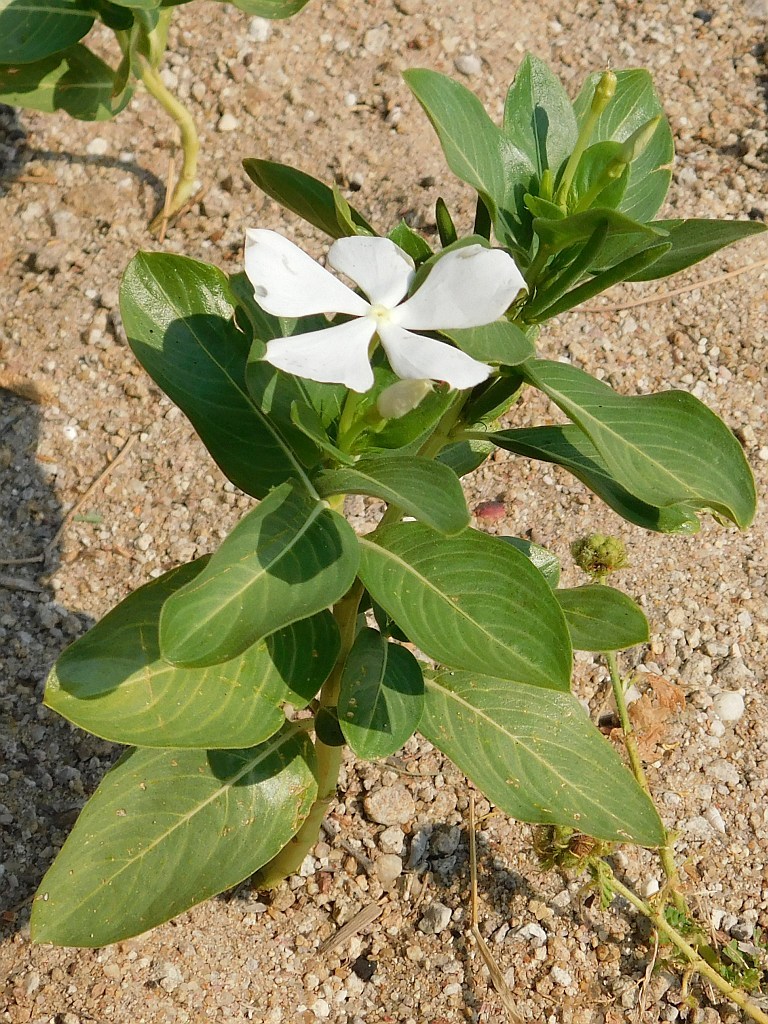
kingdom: Plantae
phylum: Tracheophyta
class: Magnoliopsida
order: Gentianales
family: Apocynaceae
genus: Catharanthus
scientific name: Catharanthus roseus
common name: Madagascar periwinkle
